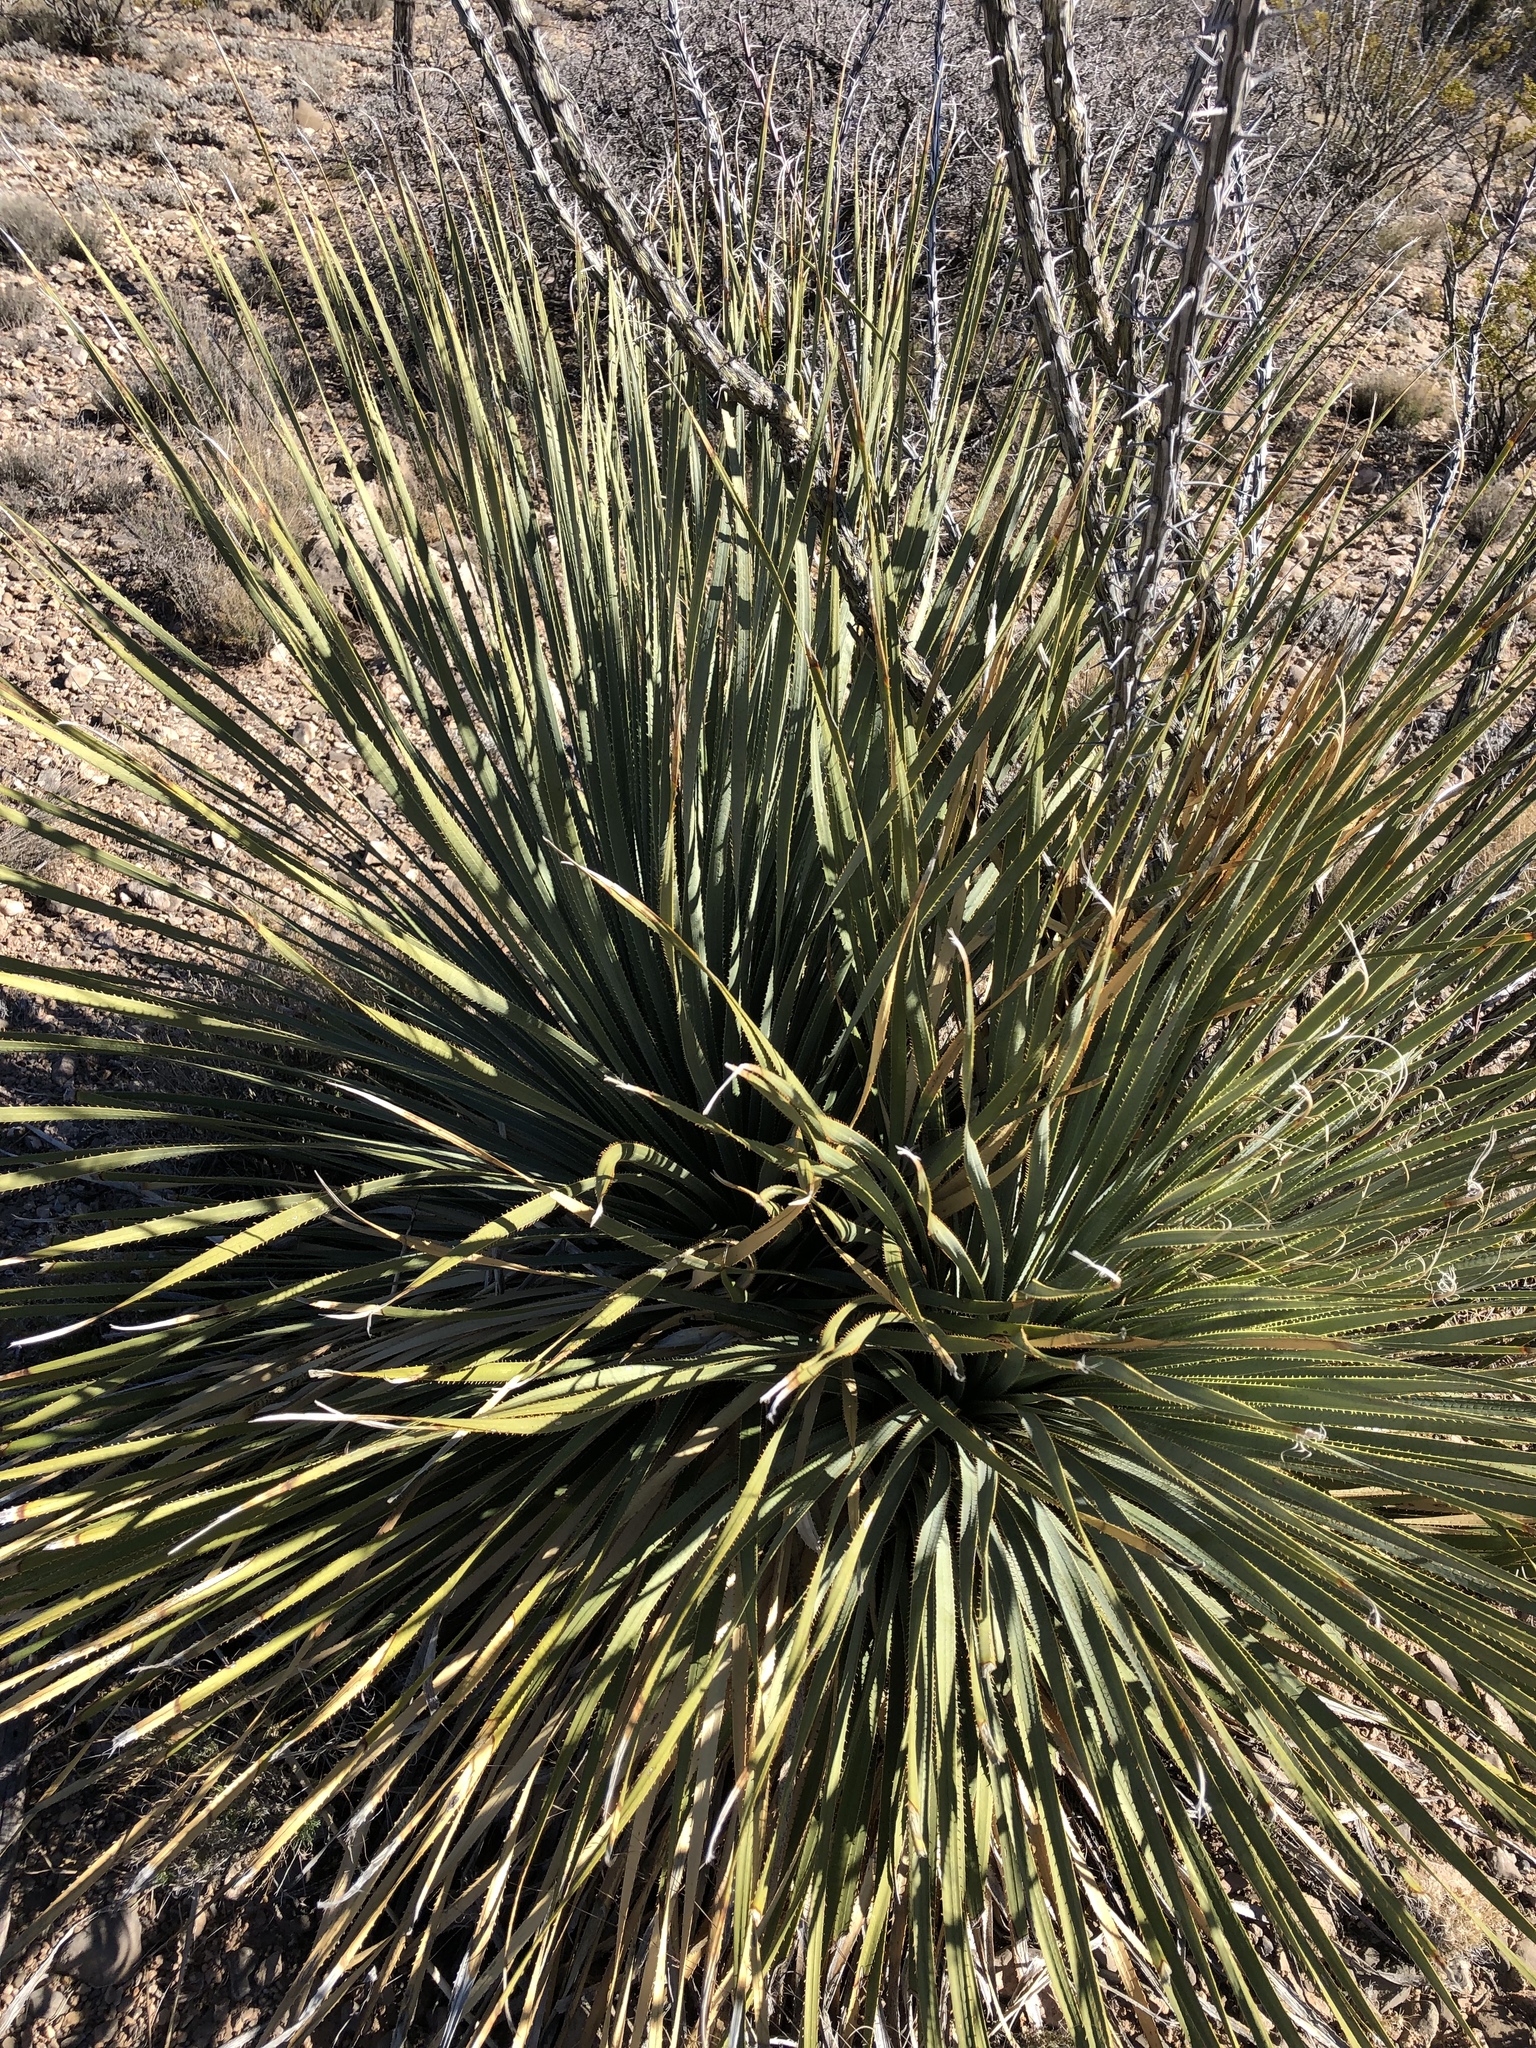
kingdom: Plantae
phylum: Tracheophyta
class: Liliopsida
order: Asparagales
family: Asparagaceae
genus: Dasylirion
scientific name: Dasylirion wheeleri
